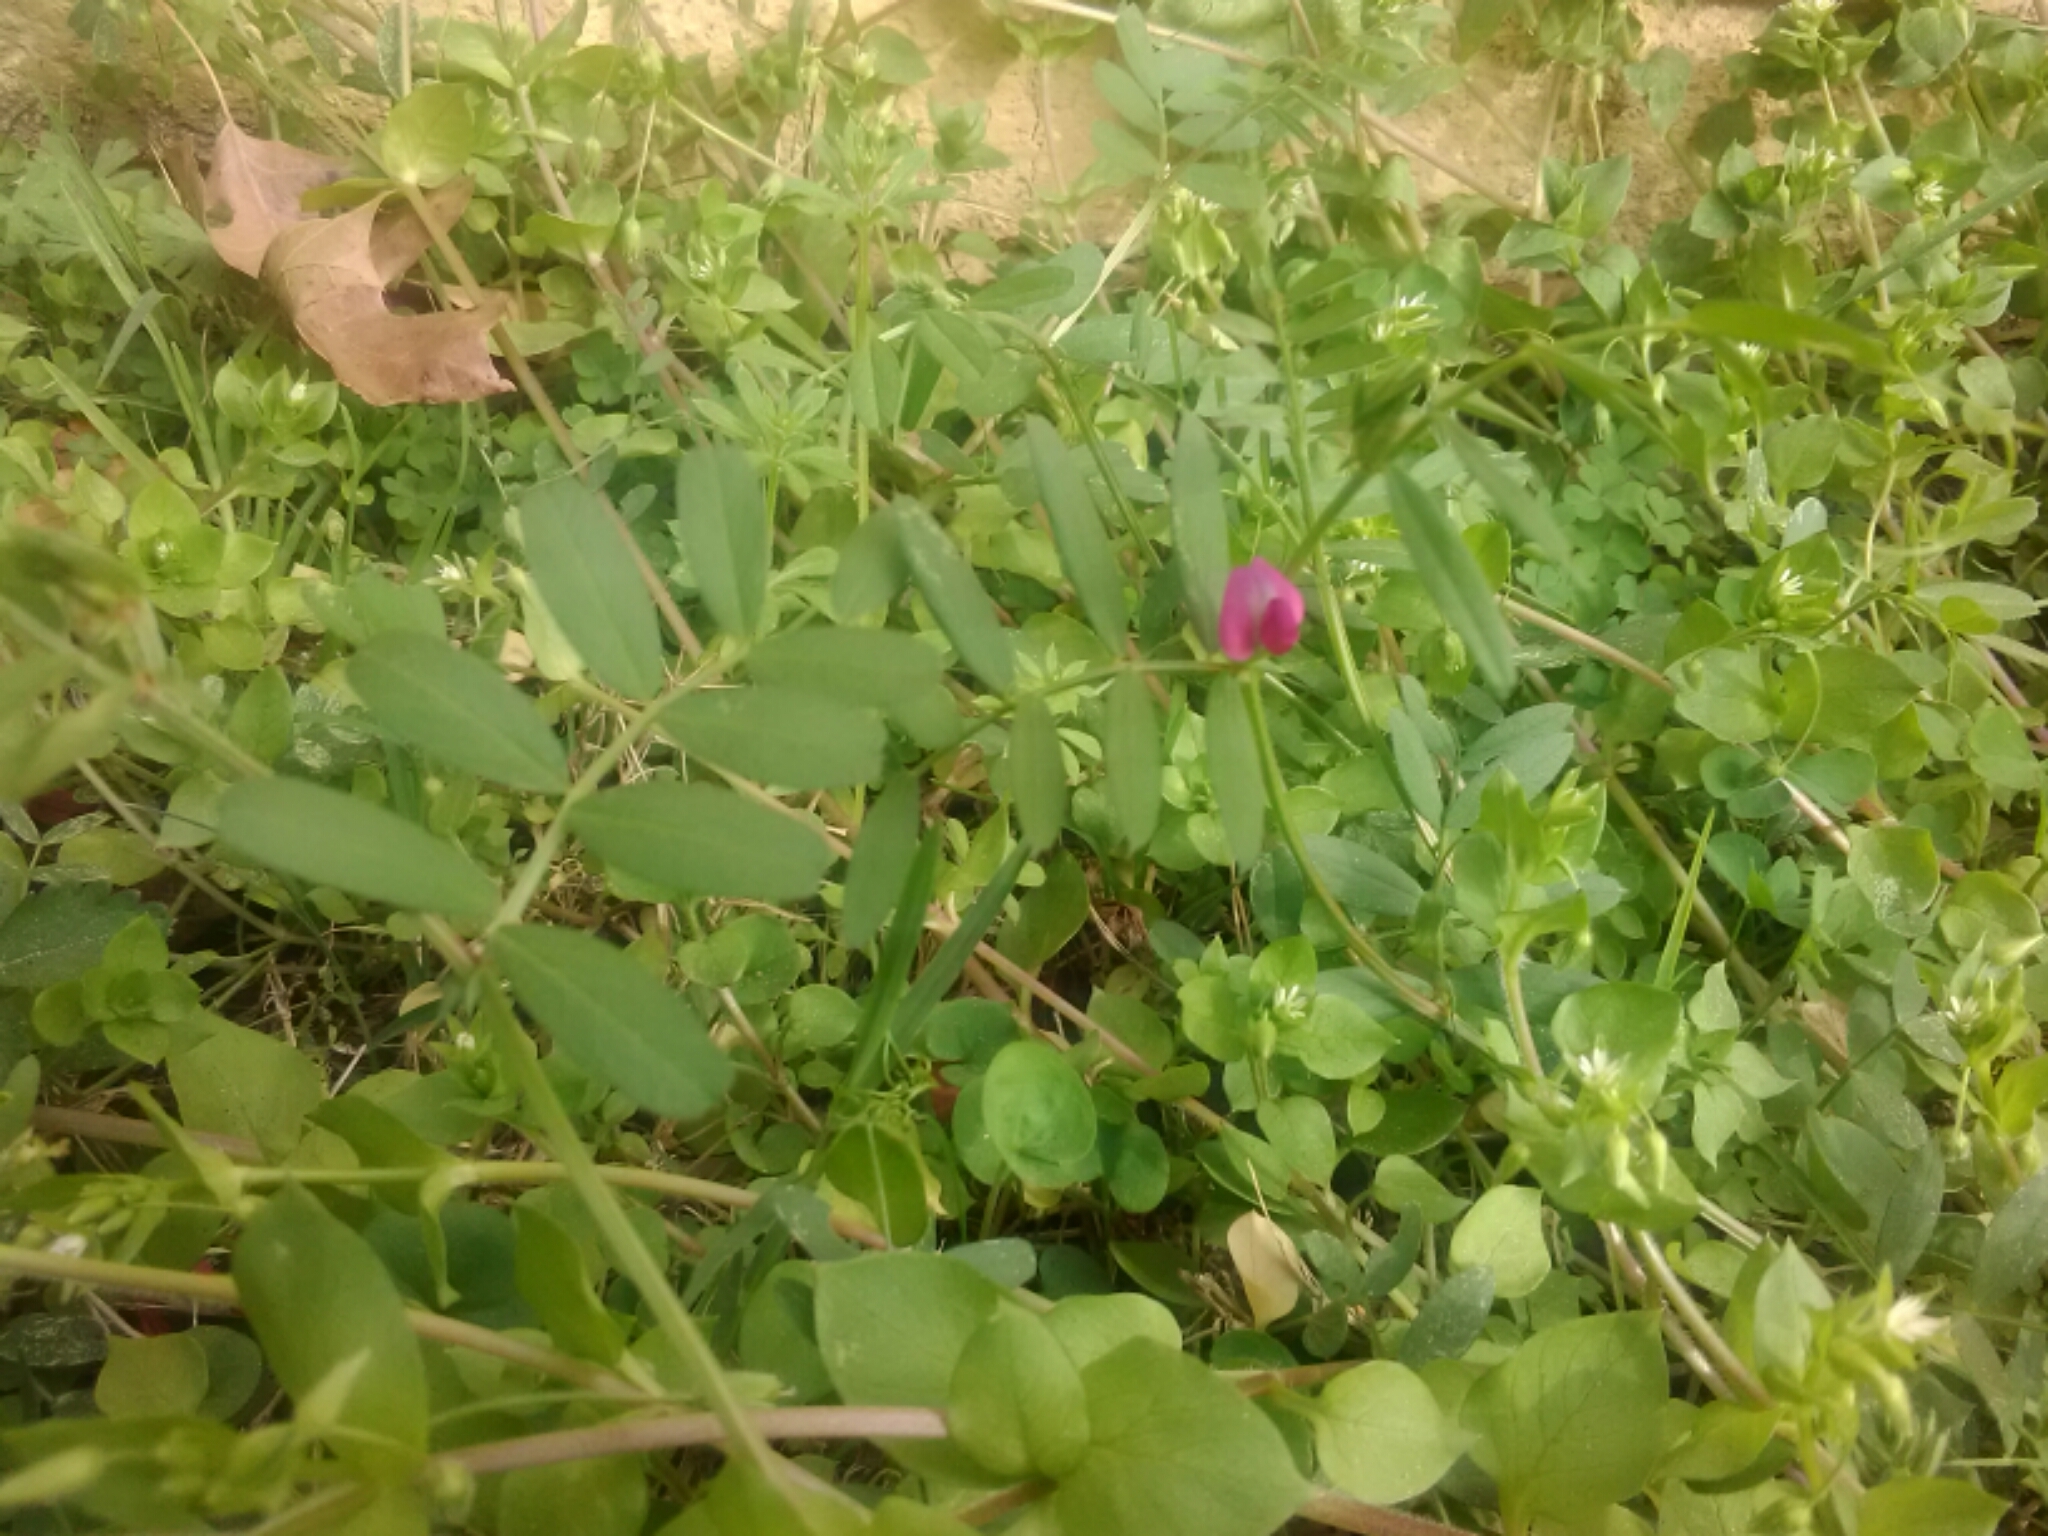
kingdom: Plantae
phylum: Tracheophyta
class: Magnoliopsida
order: Fabales
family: Fabaceae
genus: Vicia
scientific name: Vicia sativa
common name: Garden vetch
